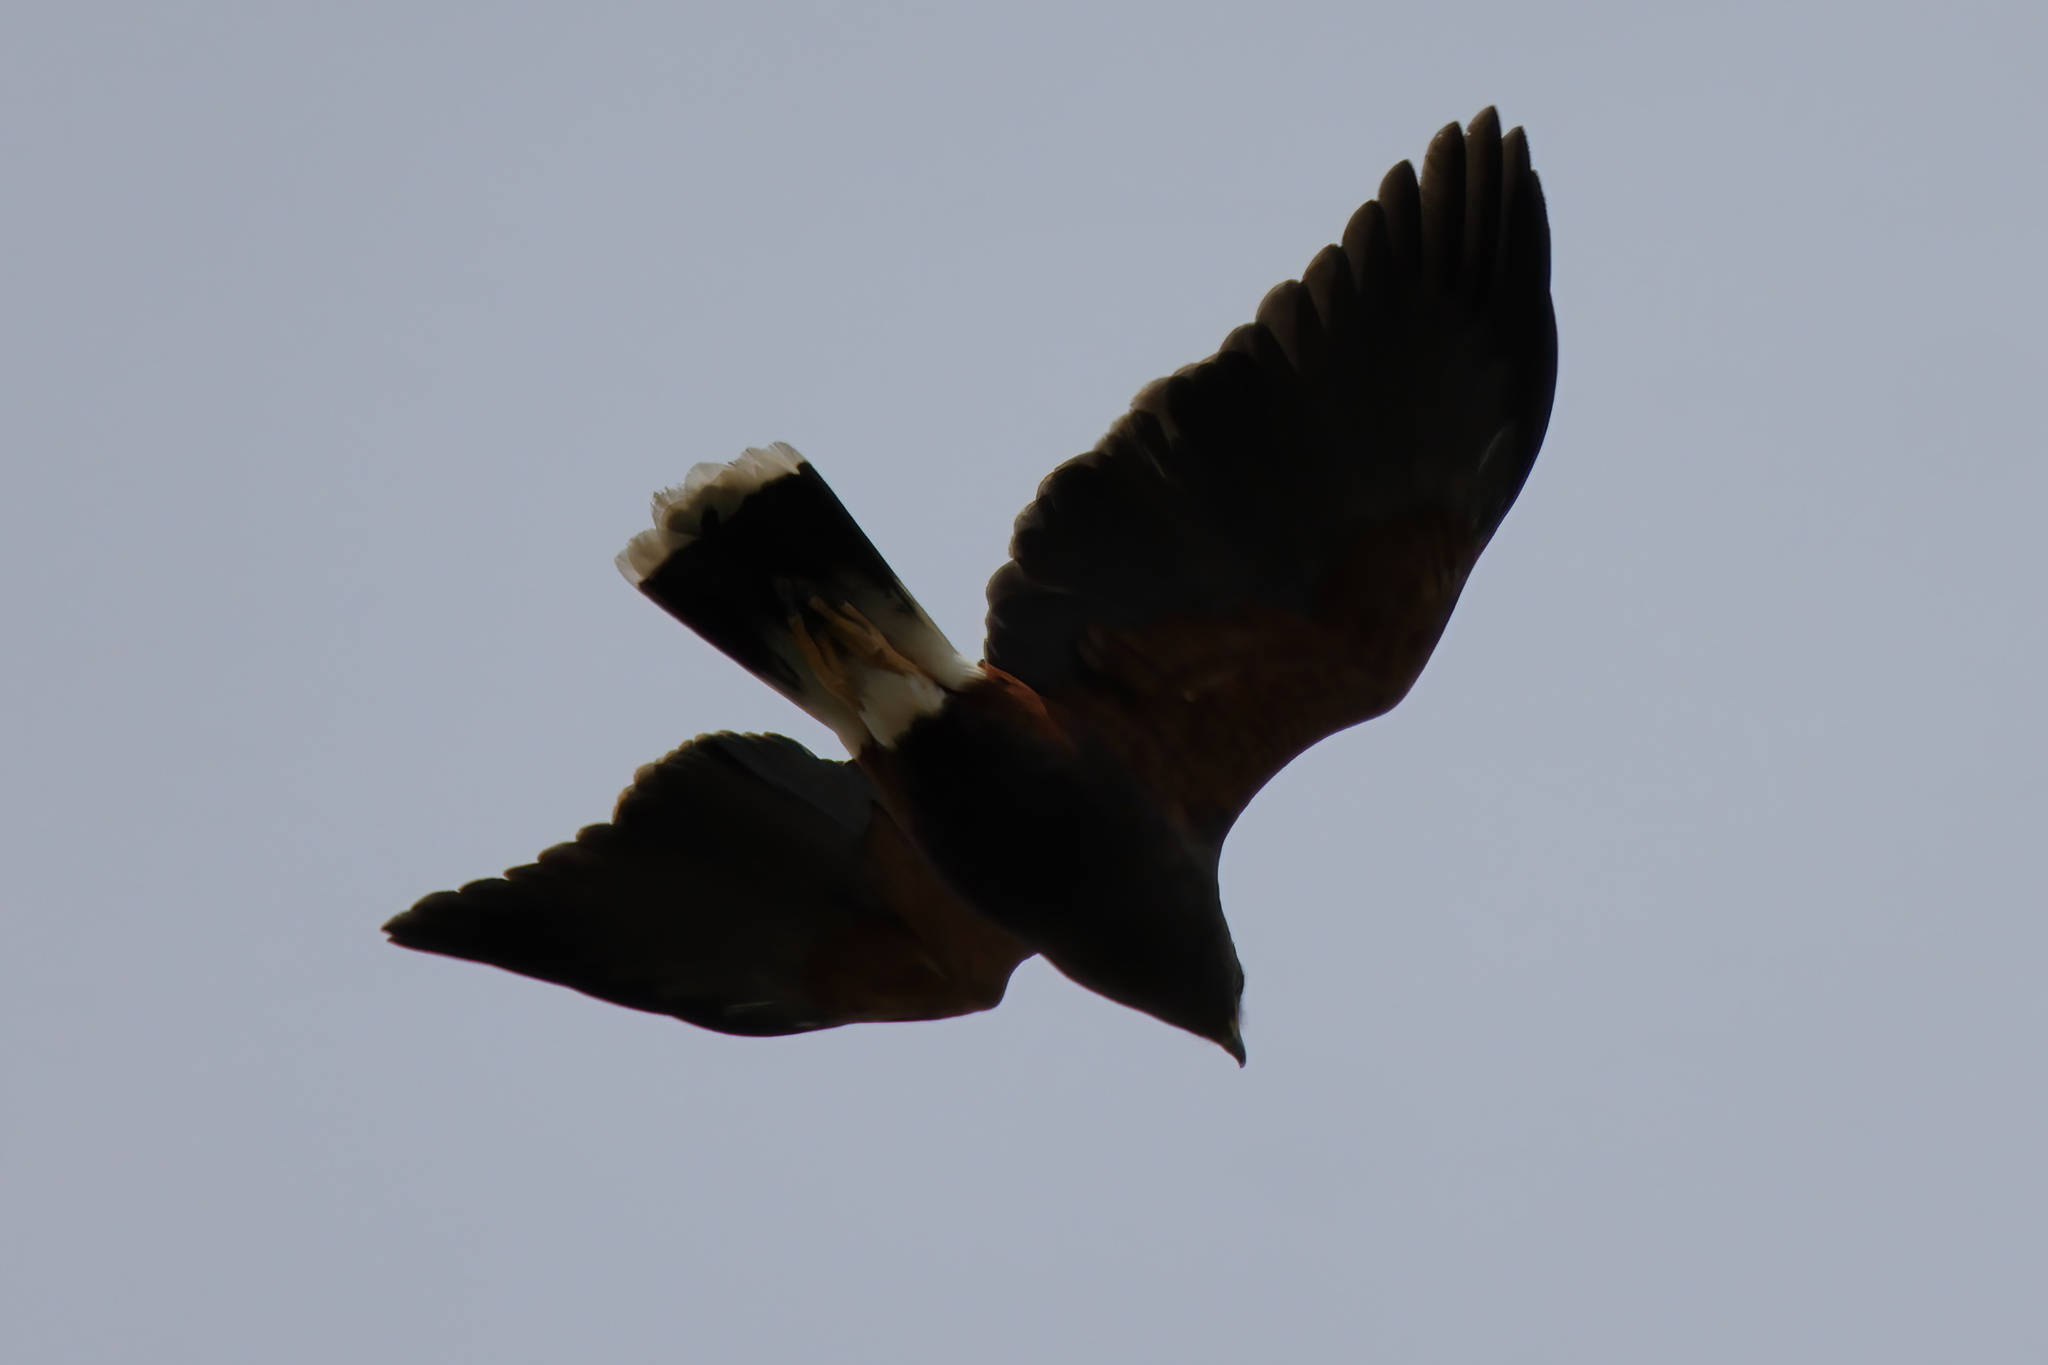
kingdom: Animalia
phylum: Chordata
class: Aves
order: Accipitriformes
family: Accipitridae
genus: Parabuteo
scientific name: Parabuteo unicinctus
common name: Harris's hawk
